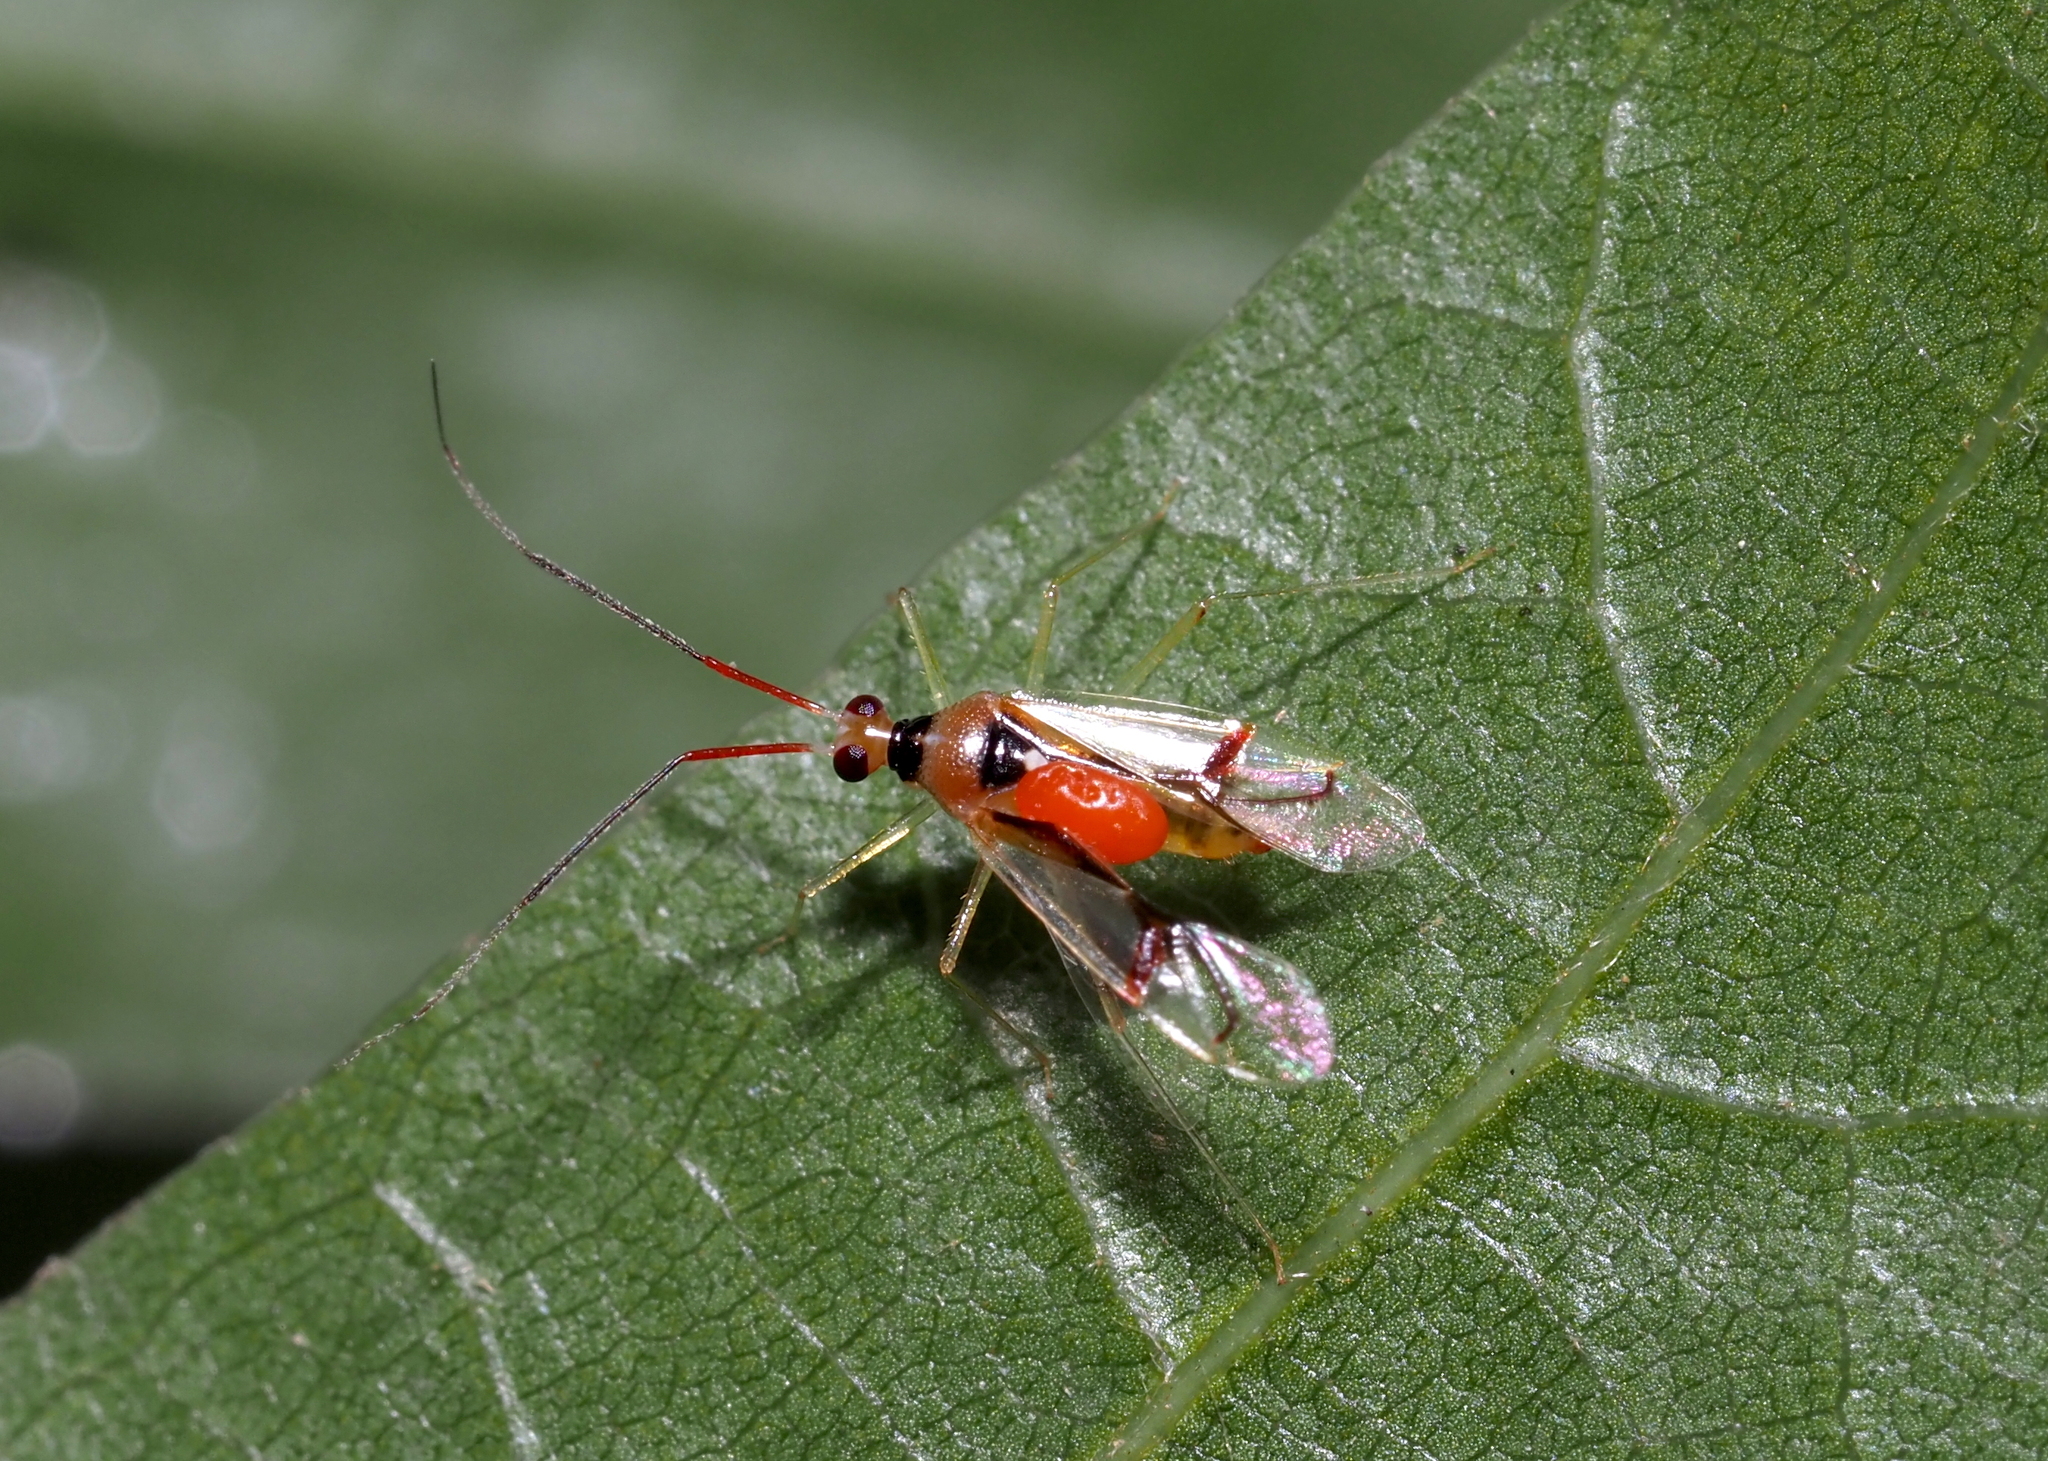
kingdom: Animalia
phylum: Arthropoda
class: Insecta
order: Hemiptera
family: Miridae
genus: Hyaliodes
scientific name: Hyaliodes harti
